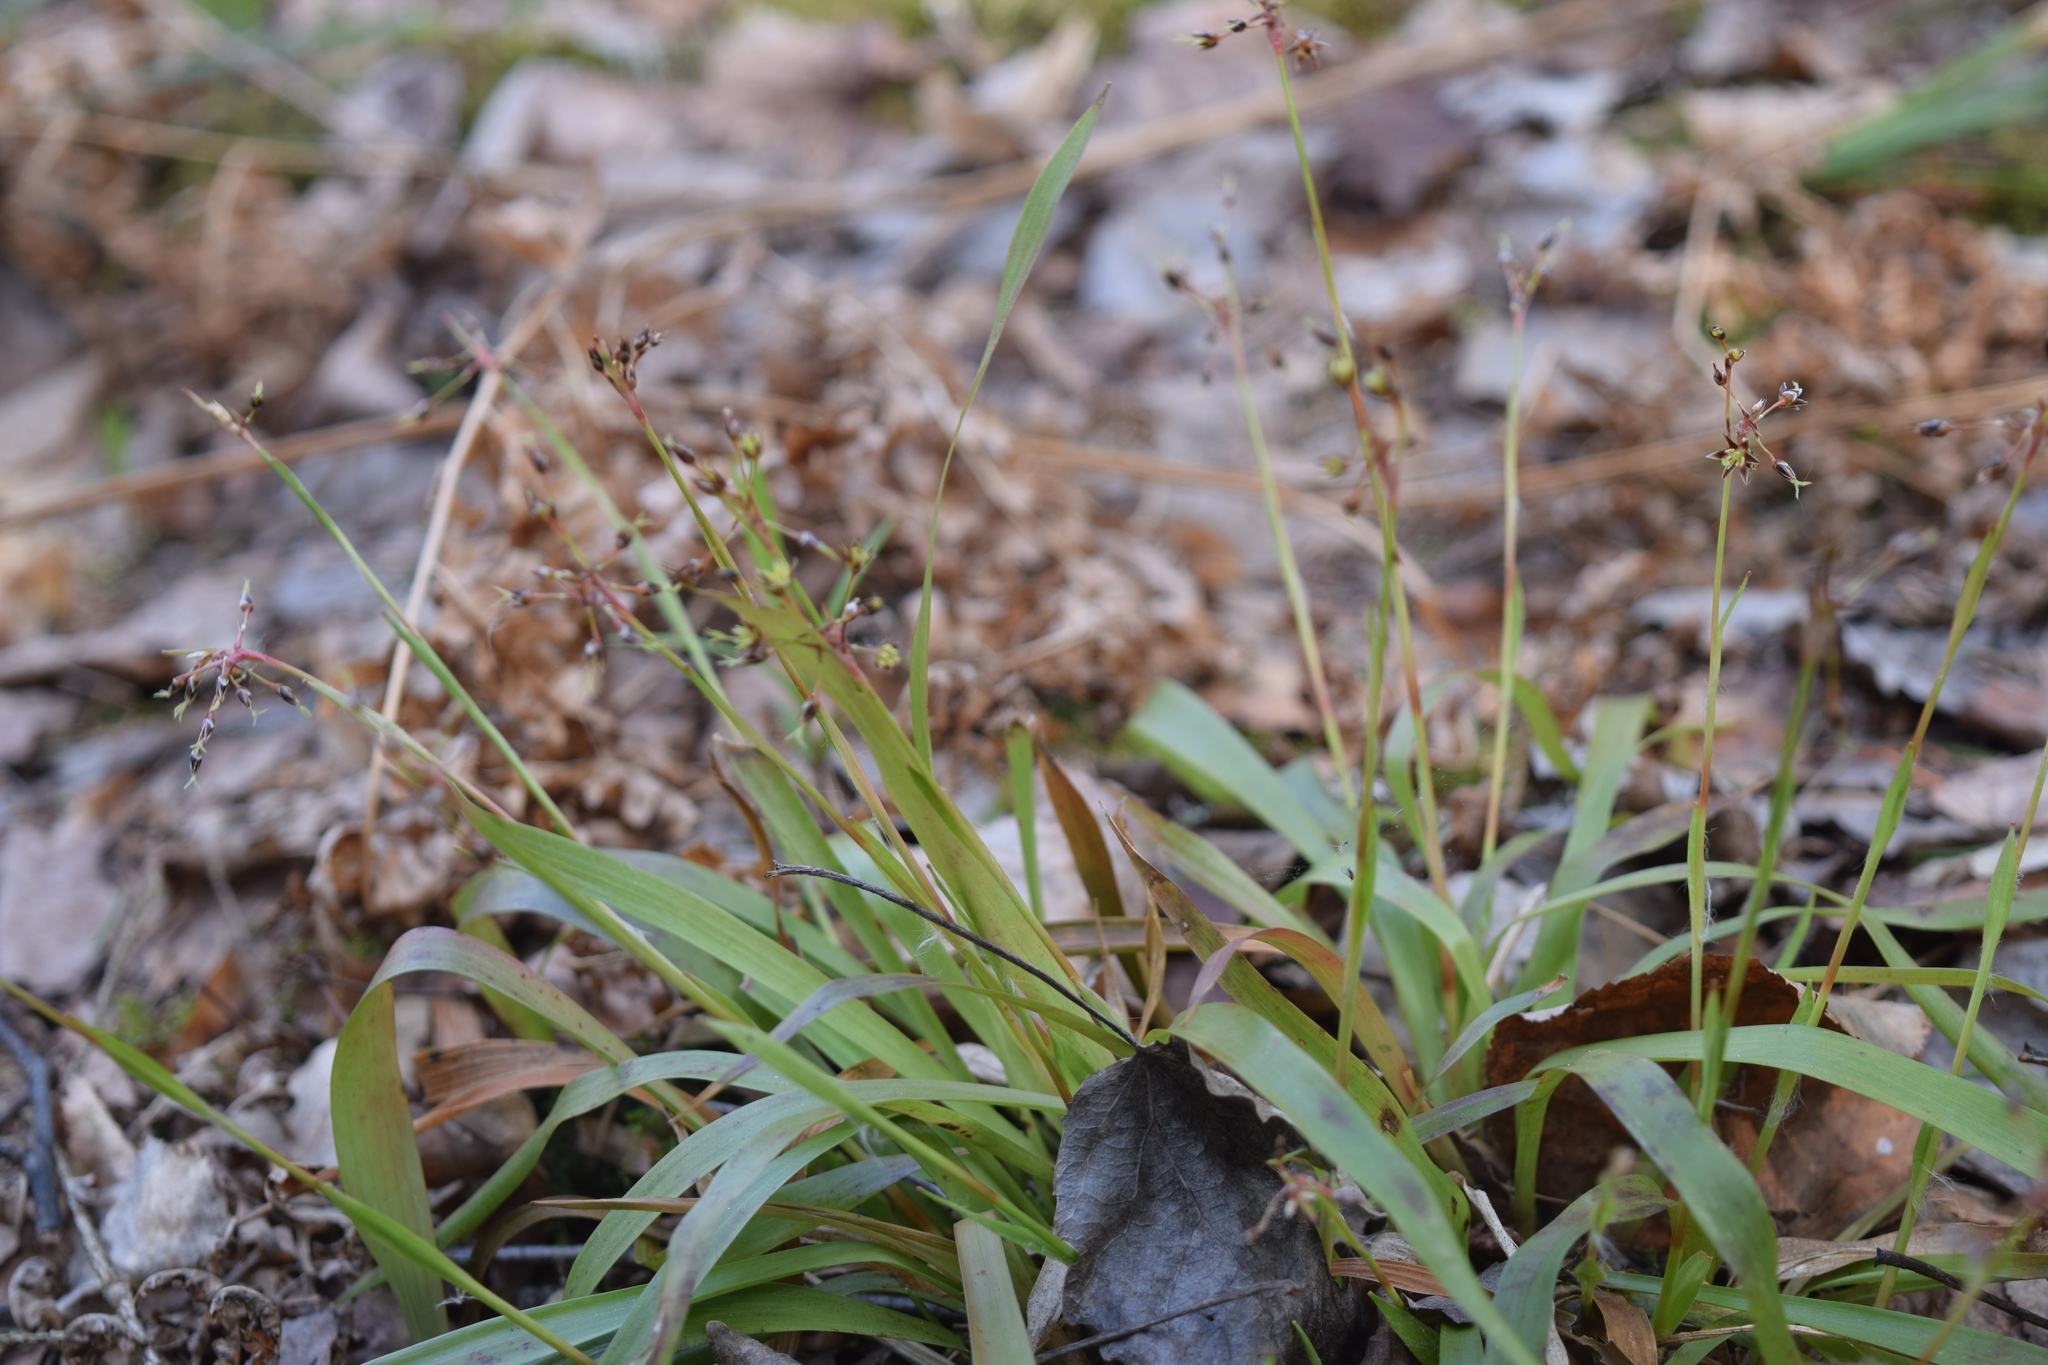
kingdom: Plantae
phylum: Tracheophyta
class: Liliopsida
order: Poales
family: Juncaceae
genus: Luzula
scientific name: Luzula pilosa
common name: Hairy wood-rush
